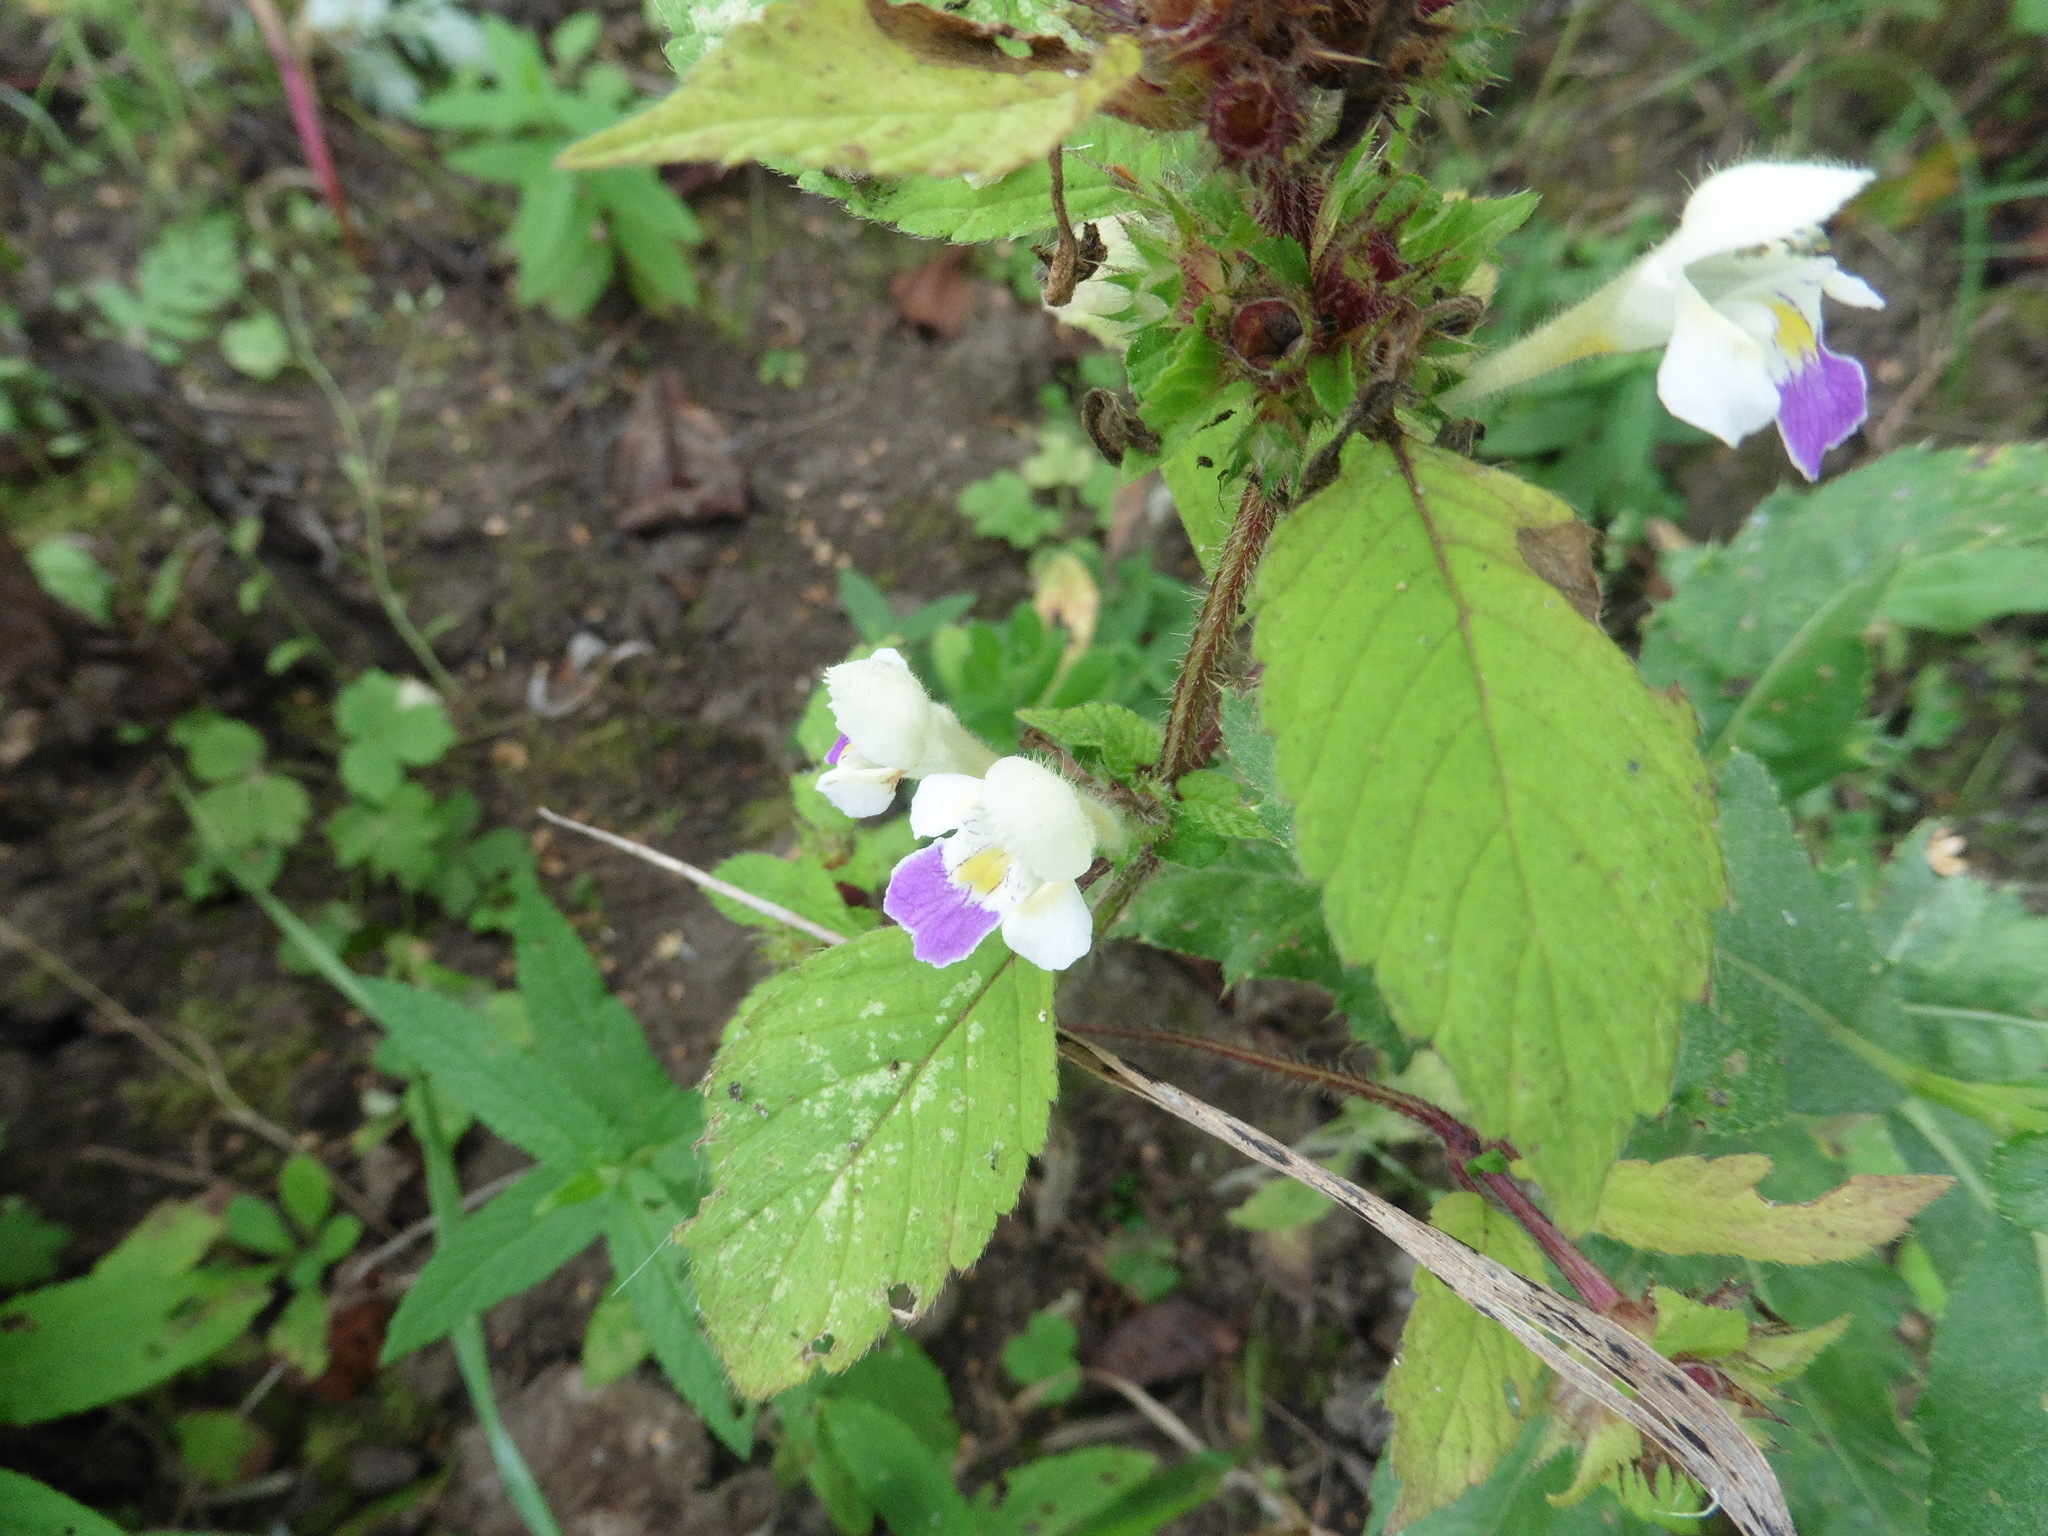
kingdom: Plantae
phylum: Tracheophyta
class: Magnoliopsida
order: Lamiales
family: Lamiaceae
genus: Galeopsis
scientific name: Galeopsis speciosa
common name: Large-flowered hemp-nettle
